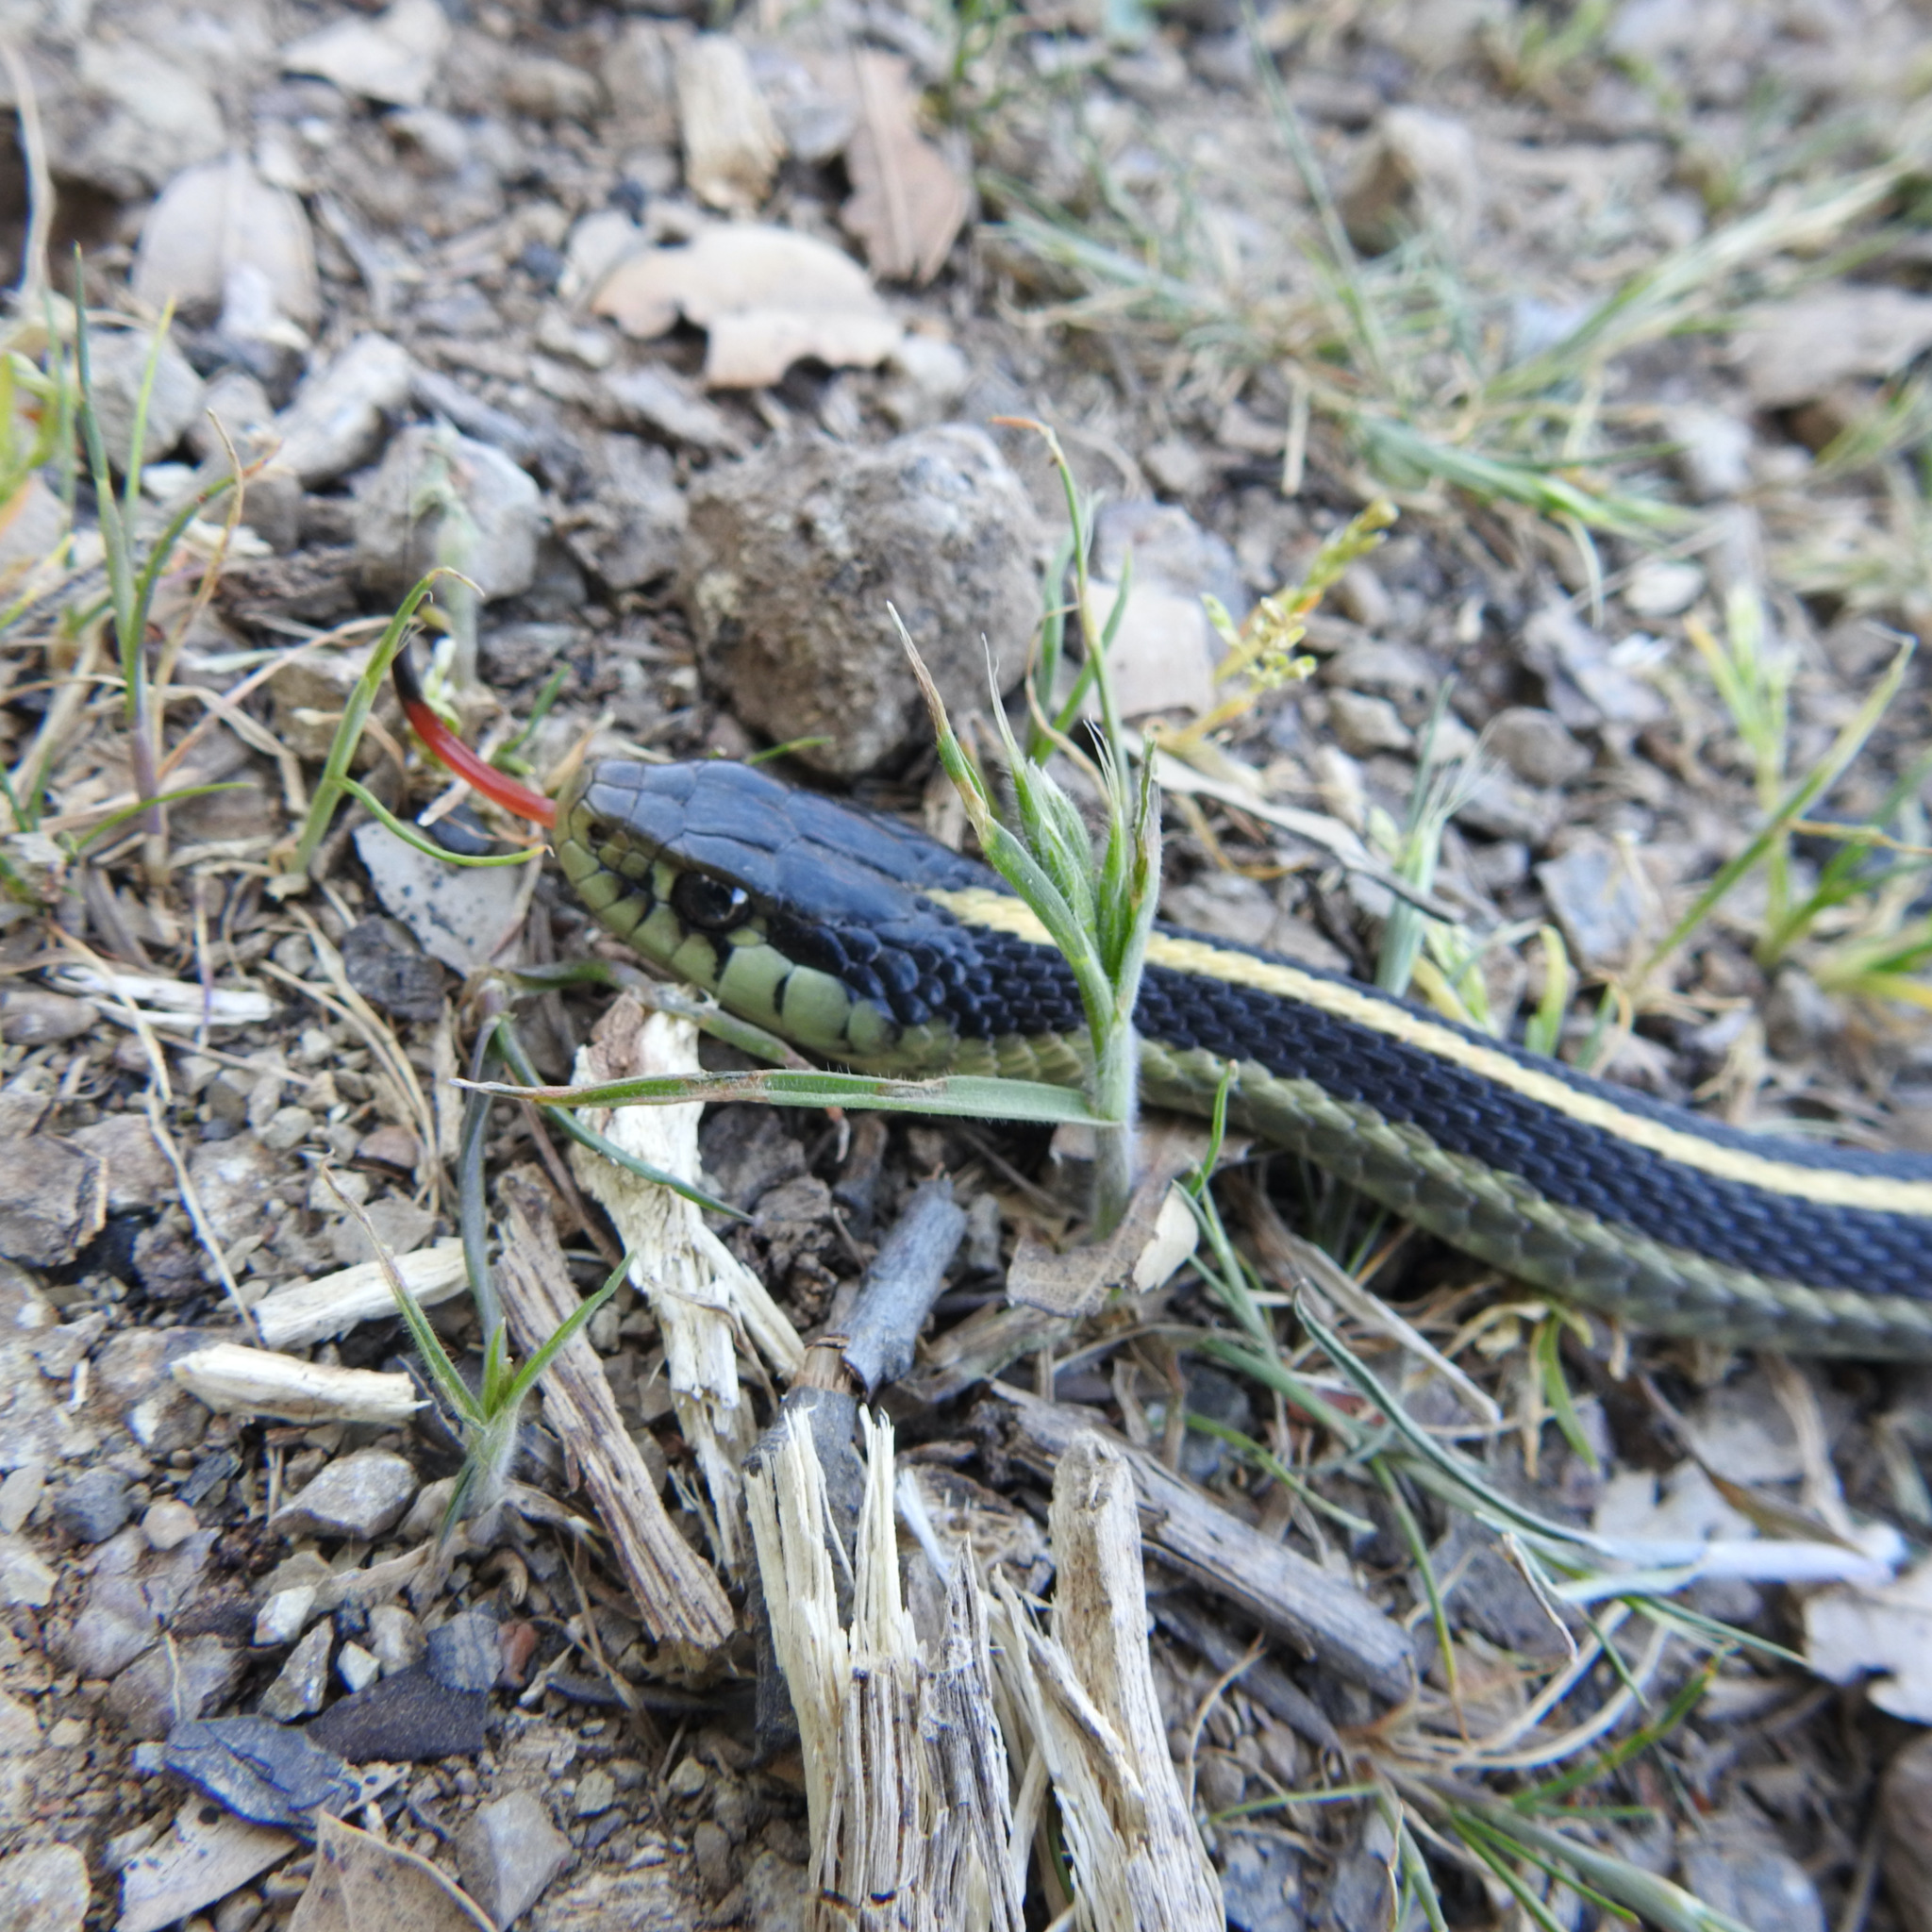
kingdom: Animalia
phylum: Chordata
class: Squamata
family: Colubridae
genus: Thamnophis
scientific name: Thamnophis elegans
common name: Western terrestrial garter snake
